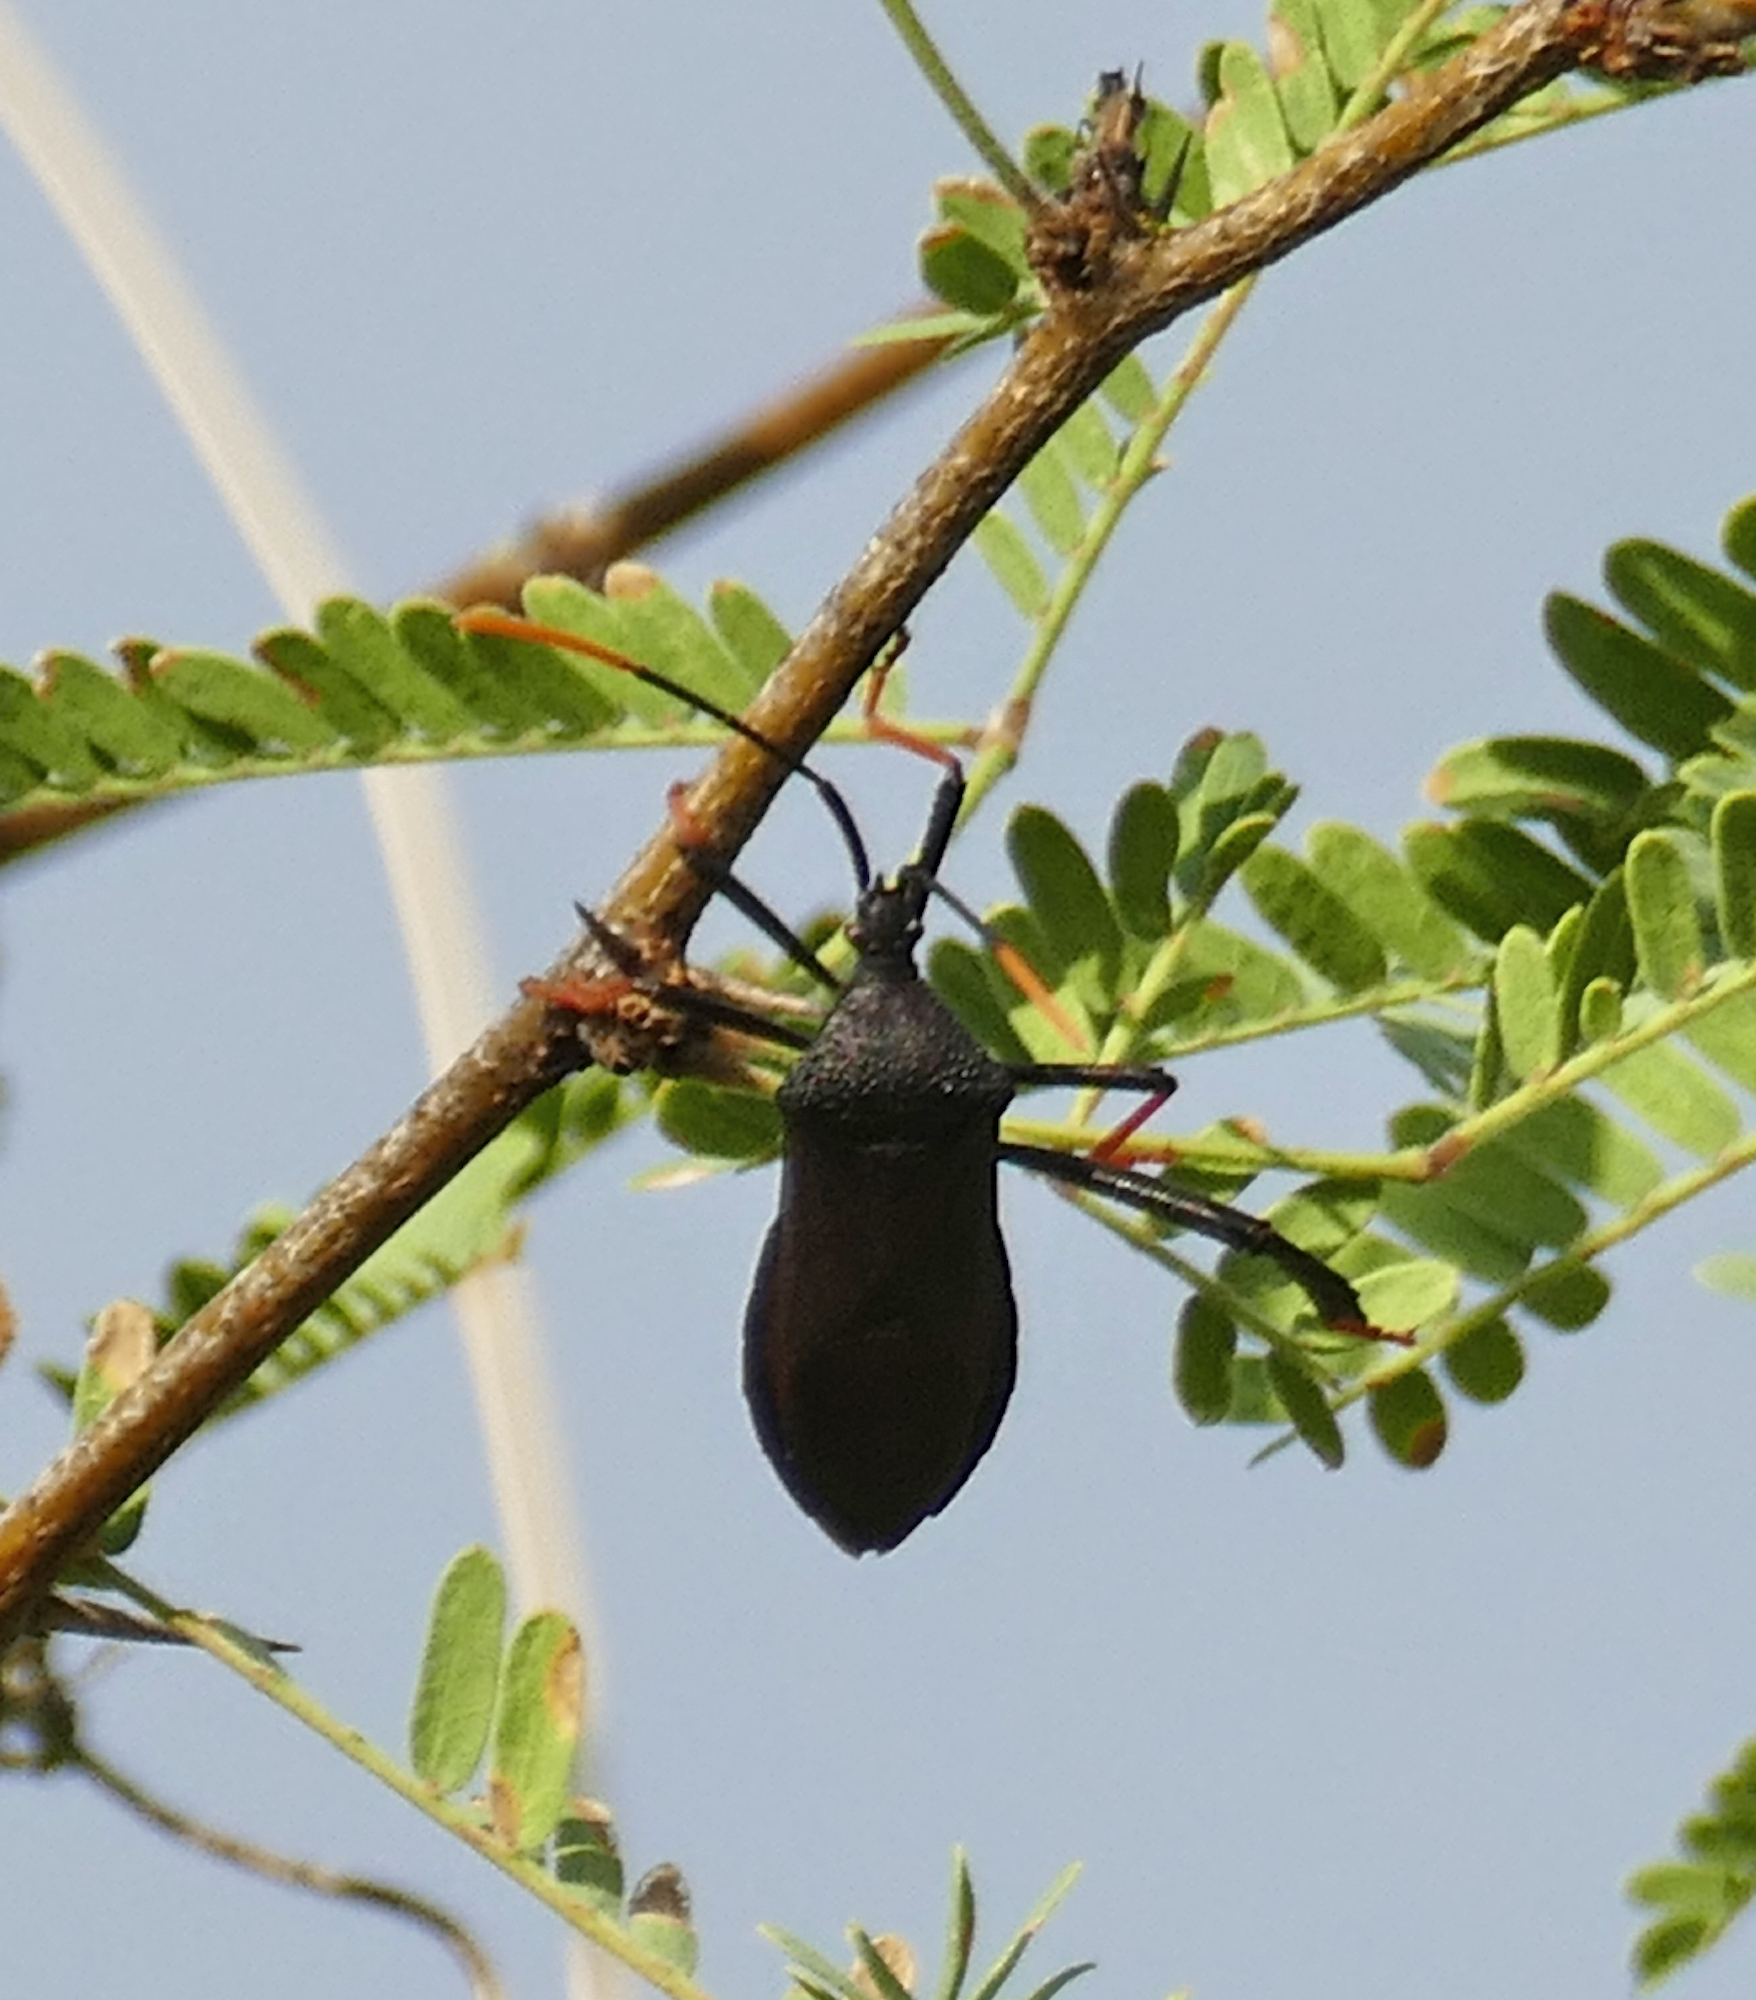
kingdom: Animalia
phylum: Arthropoda
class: Insecta
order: Hemiptera
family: Coreidae
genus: Acanthocephala
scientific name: Acanthocephala thomasi
